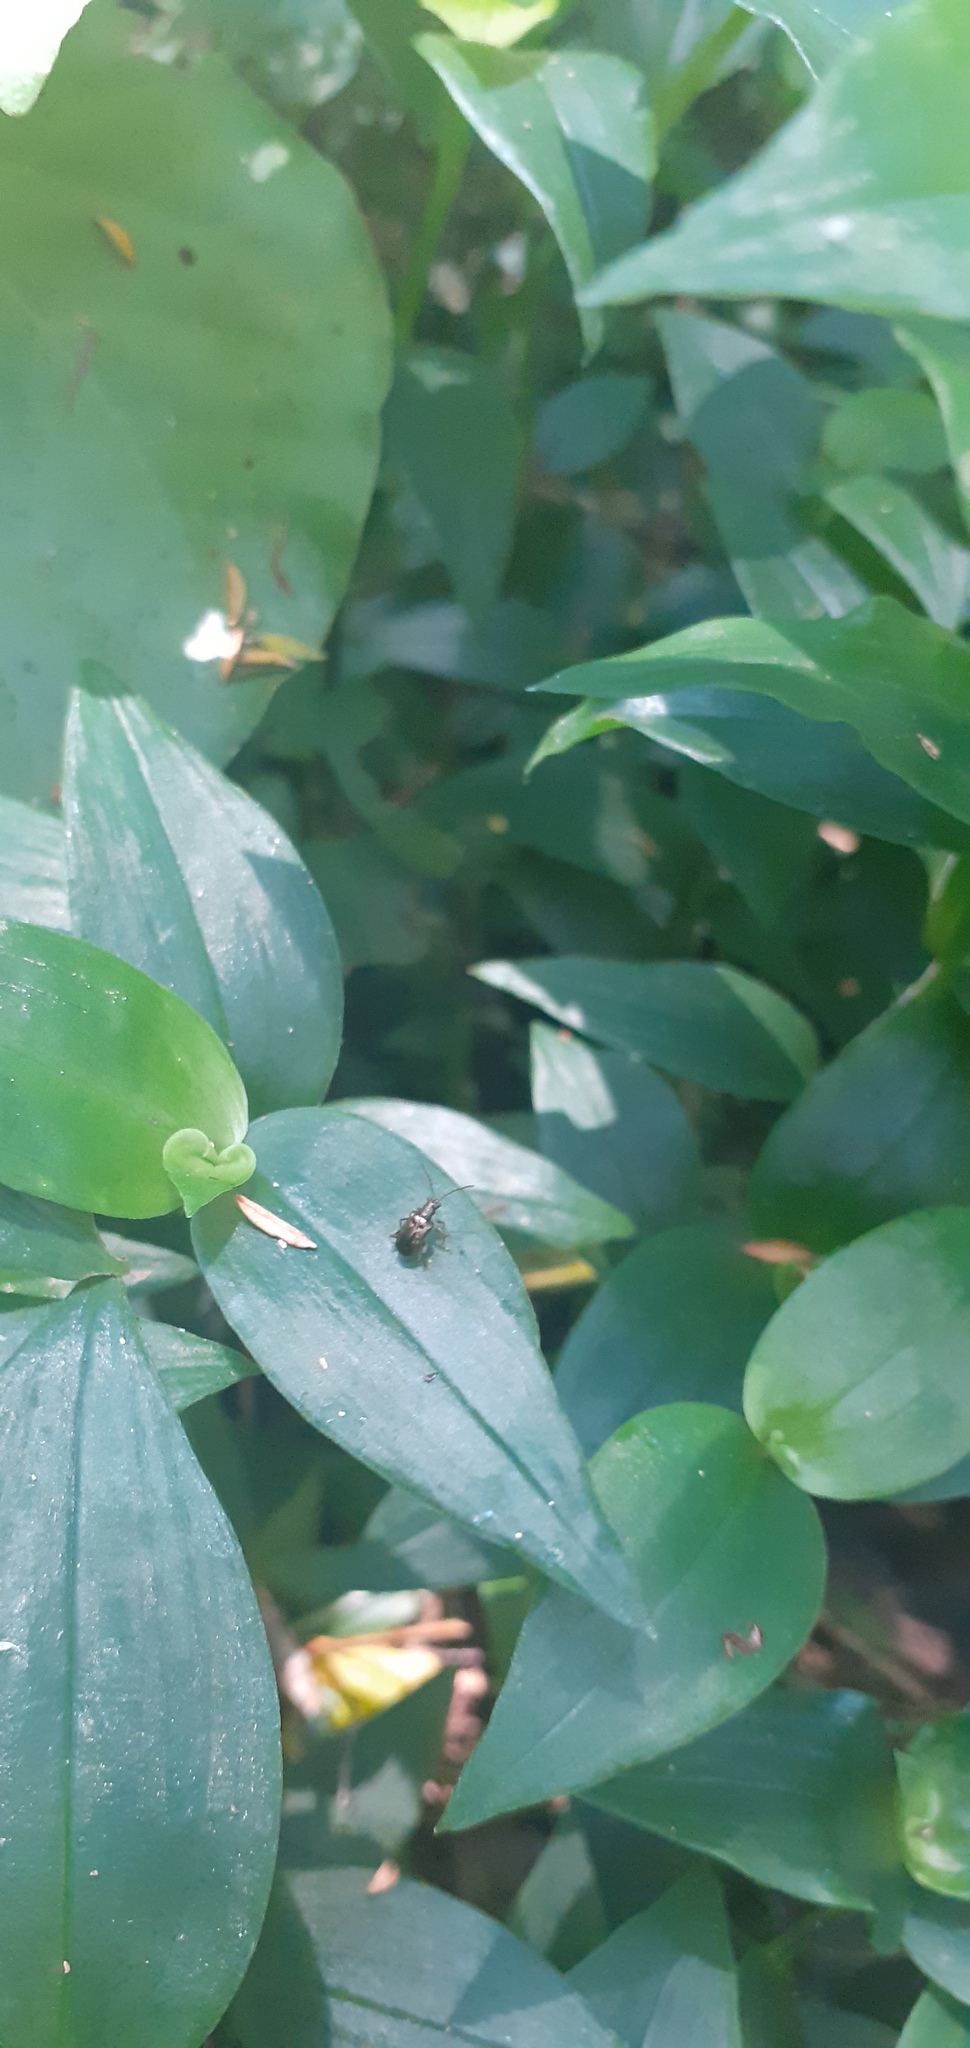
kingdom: Animalia
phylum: Arthropoda
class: Insecta
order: Coleoptera
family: Chrysomelidae
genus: Neolema
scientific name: Neolema ogloblini
